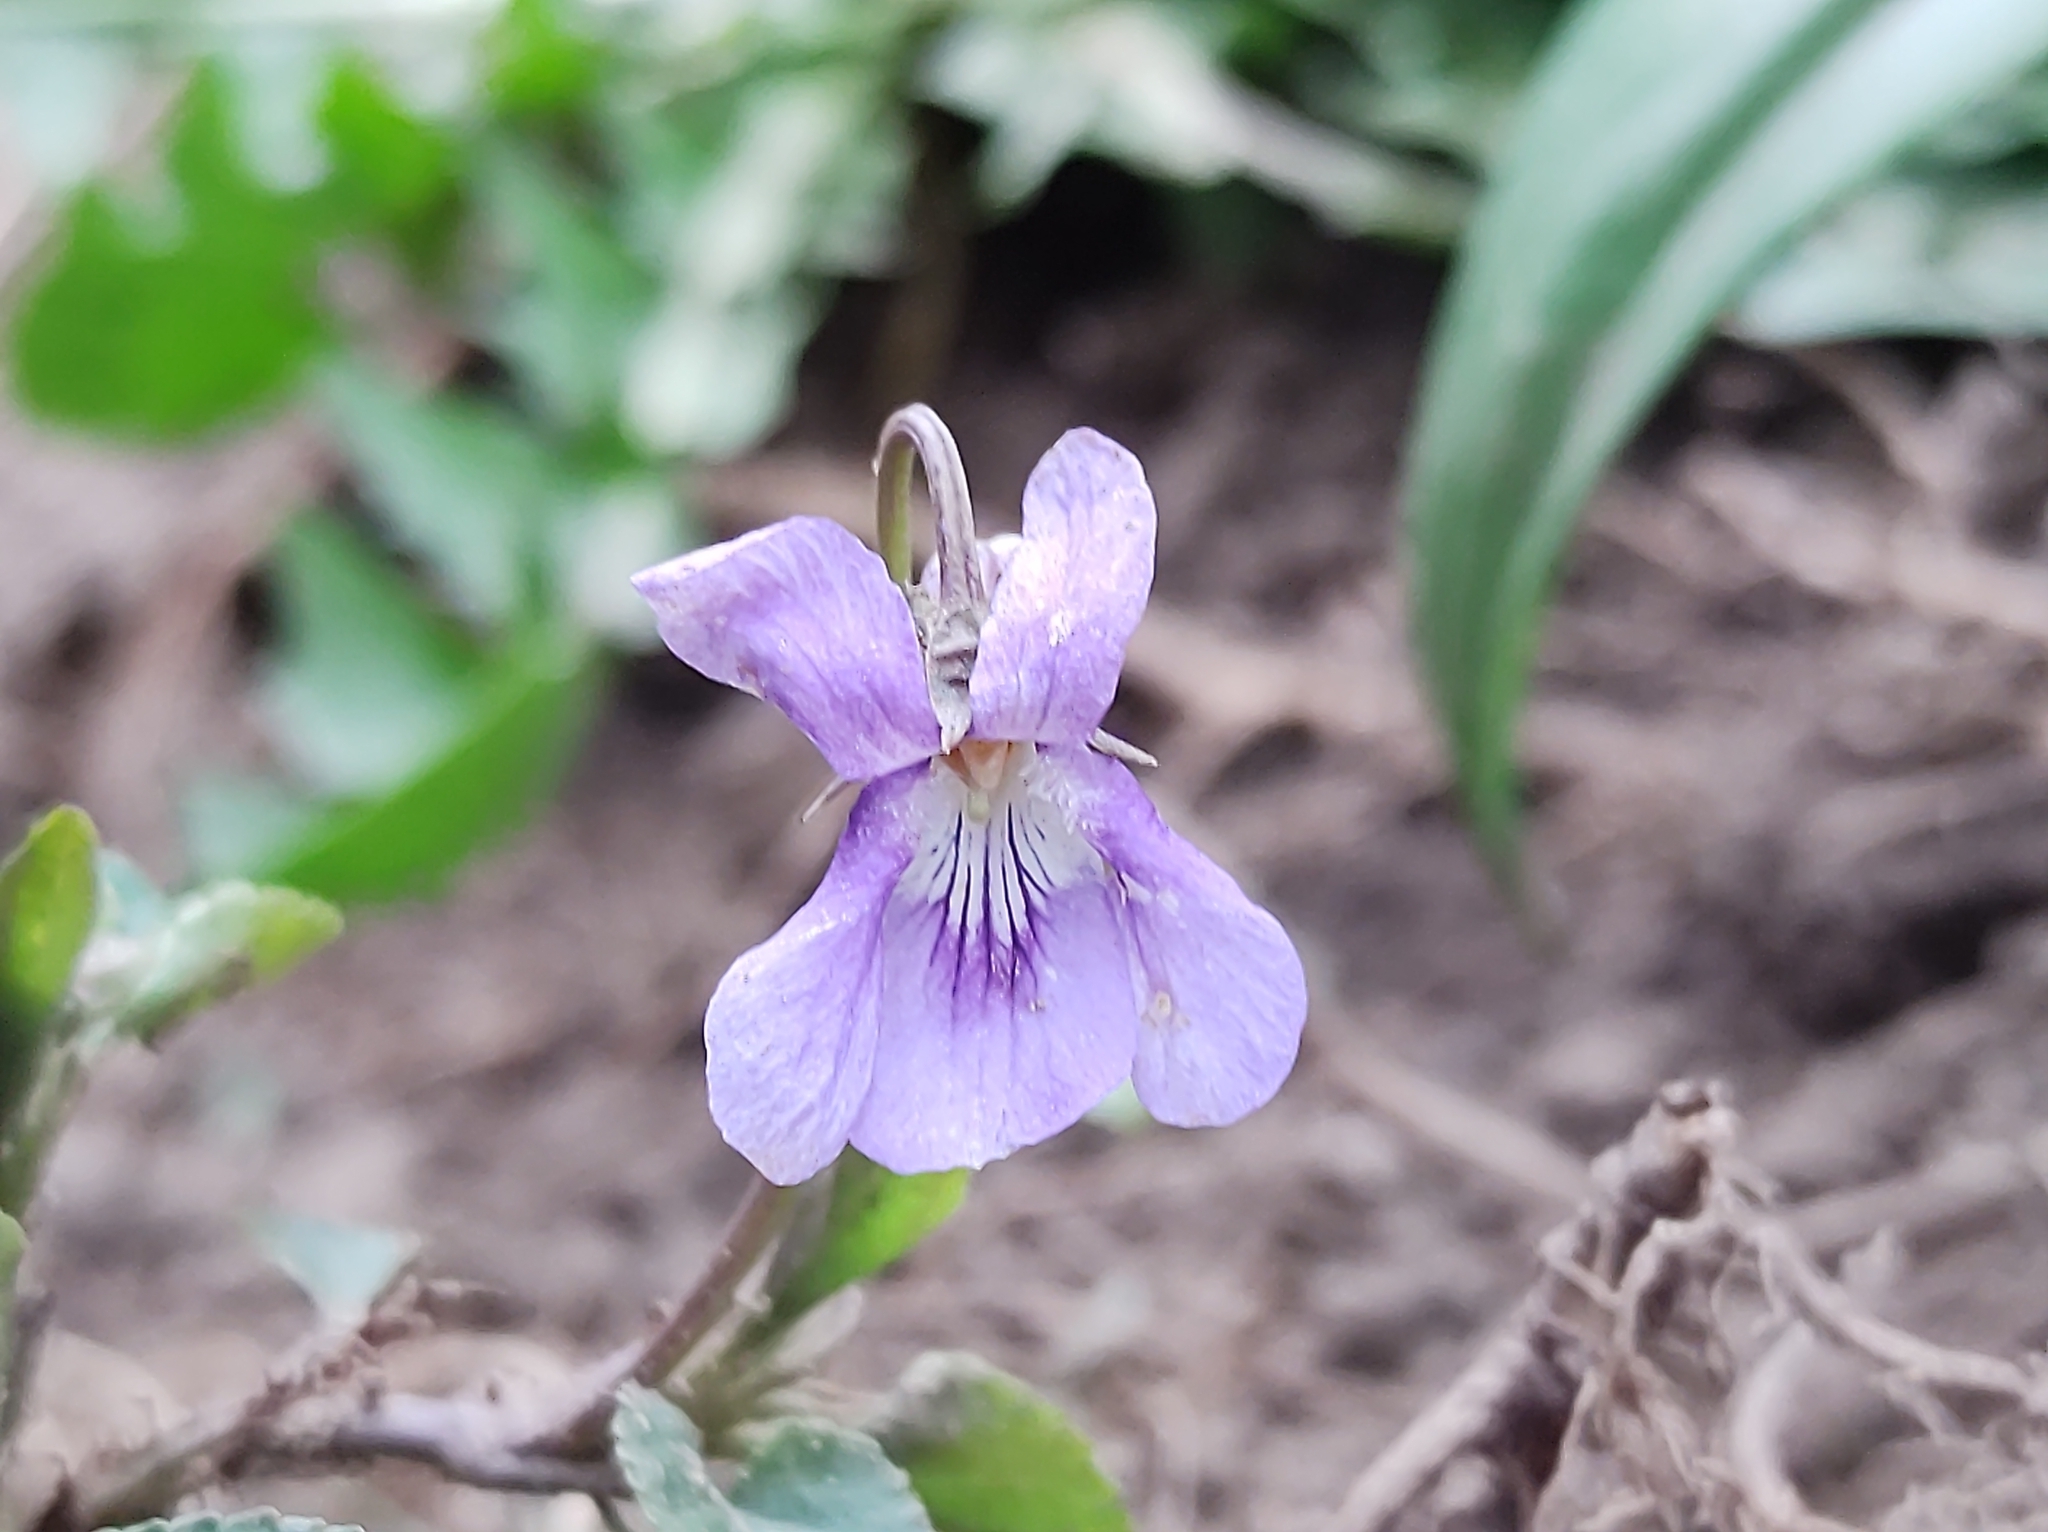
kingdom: Plantae
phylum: Tracheophyta
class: Magnoliopsida
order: Malpighiales
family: Violaceae
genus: Viola
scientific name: Viola riviniana
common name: Common dog-violet
